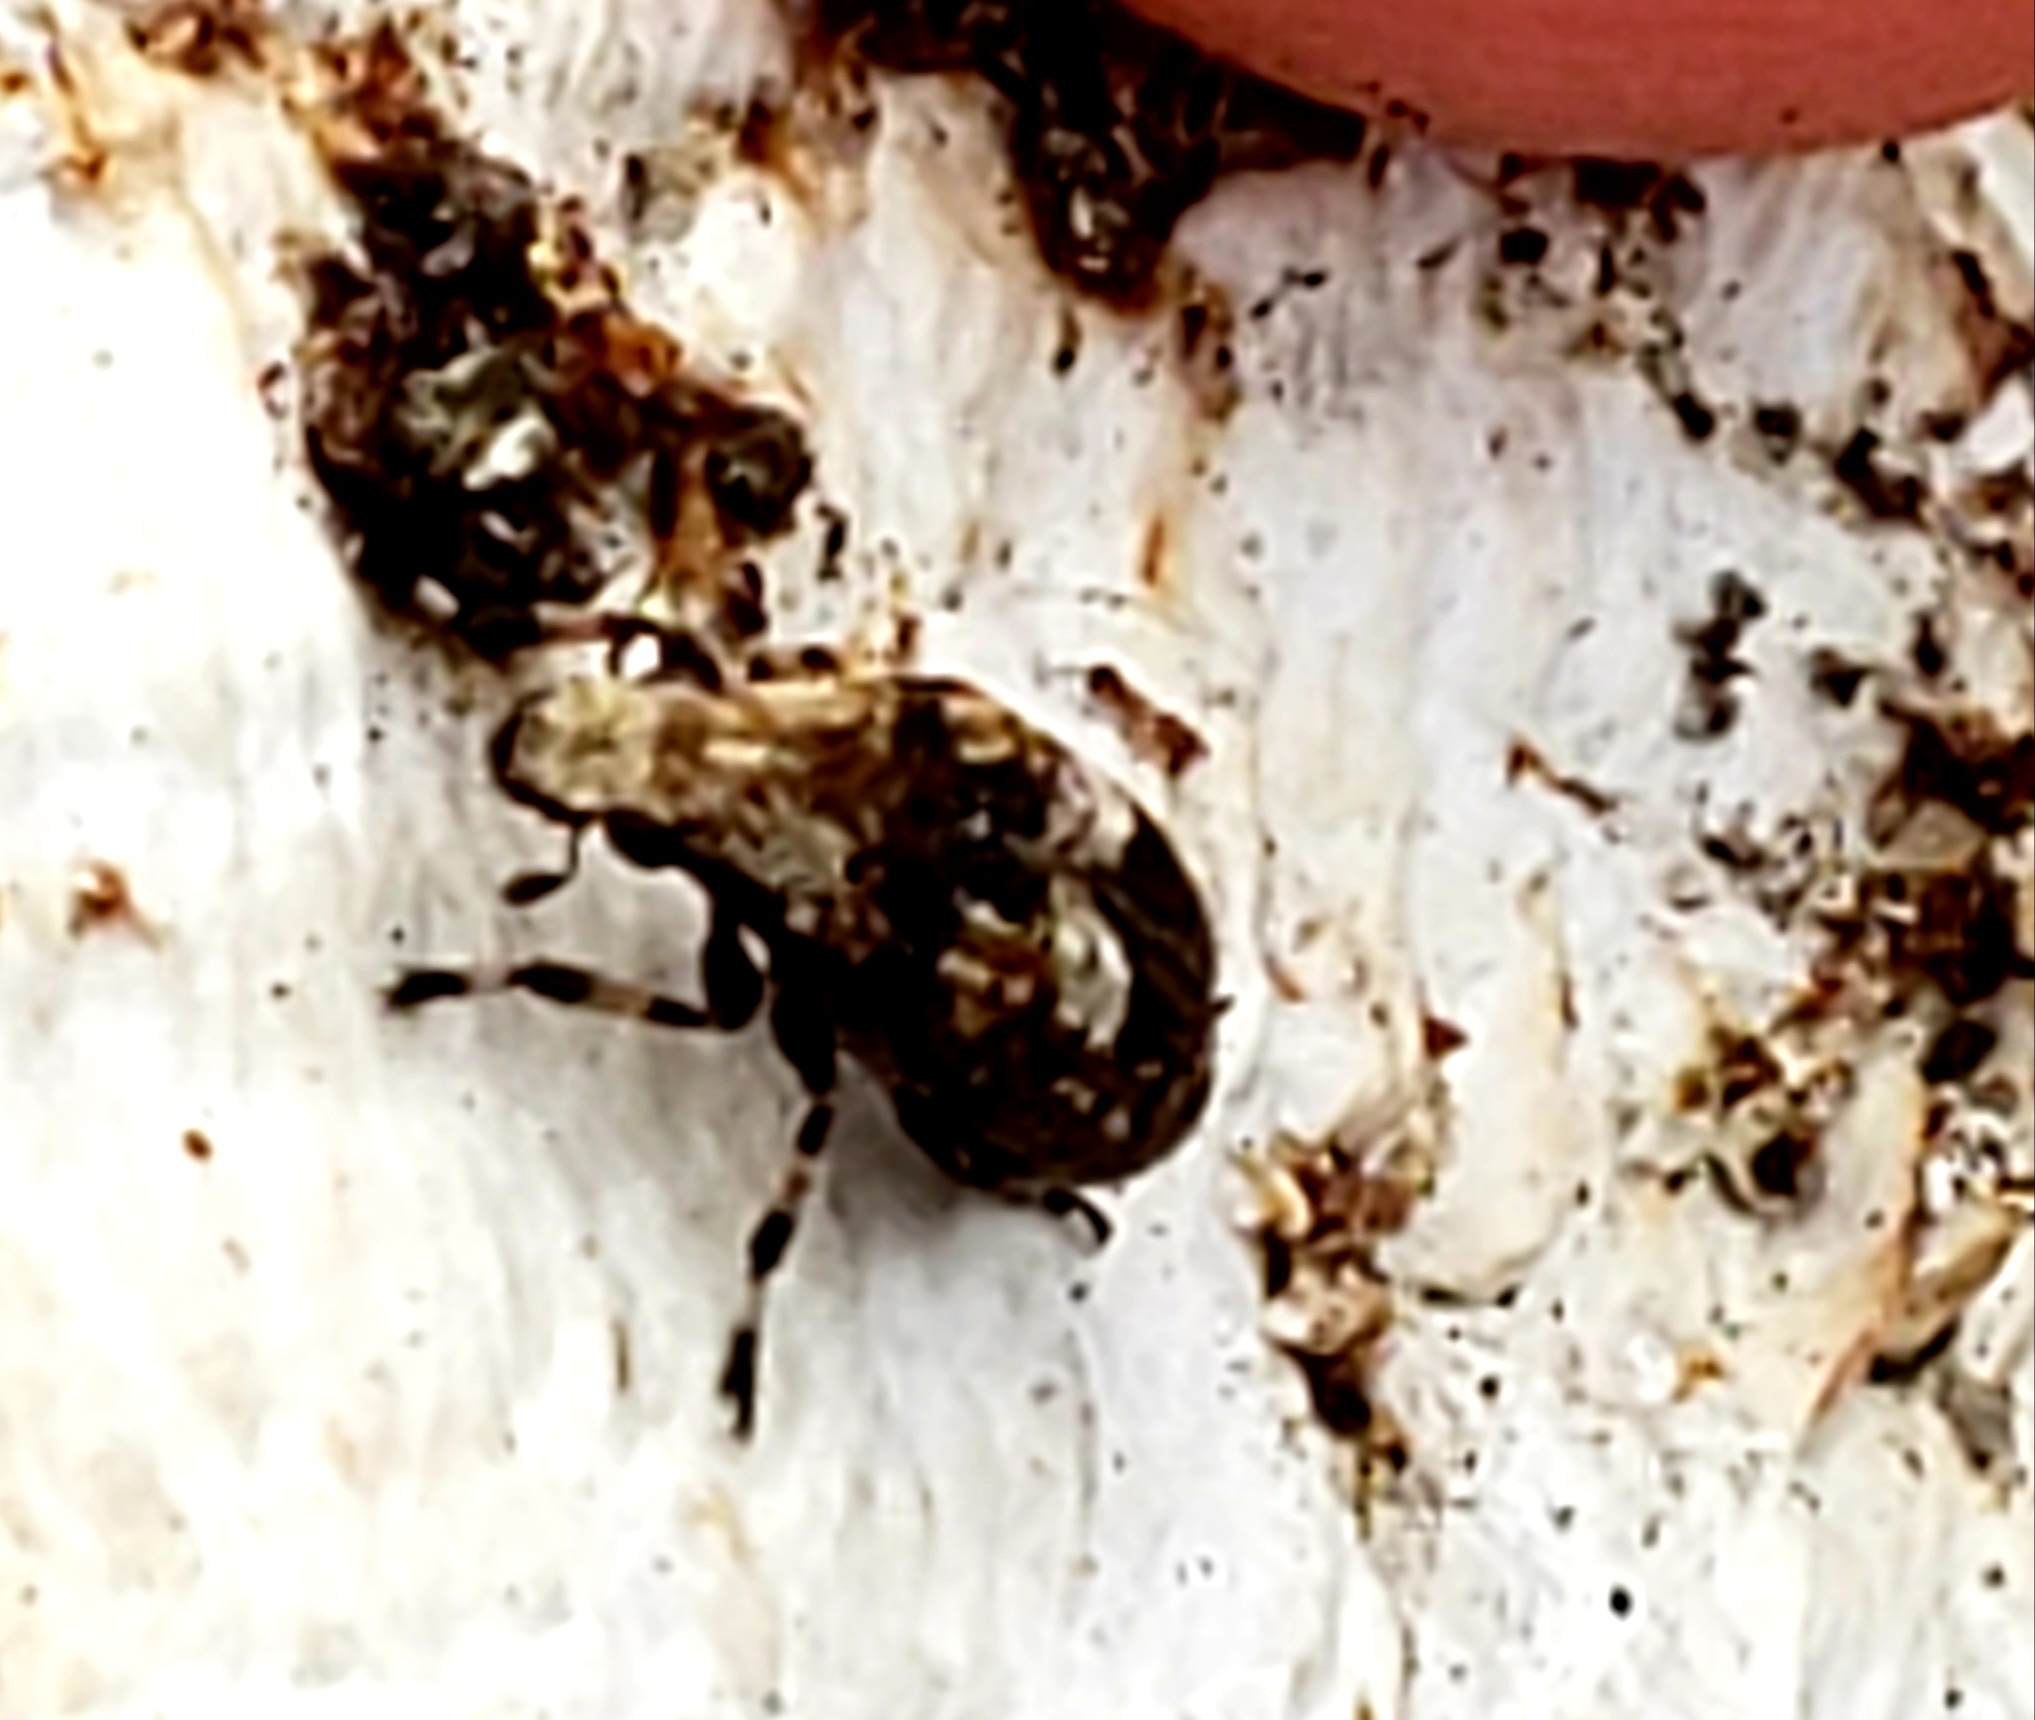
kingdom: Animalia
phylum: Arthropoda
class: Insecta
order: Coleoptera
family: Anthribidae
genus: Euparius
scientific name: Euparius marmoreus
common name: Marbled fungus weevil
